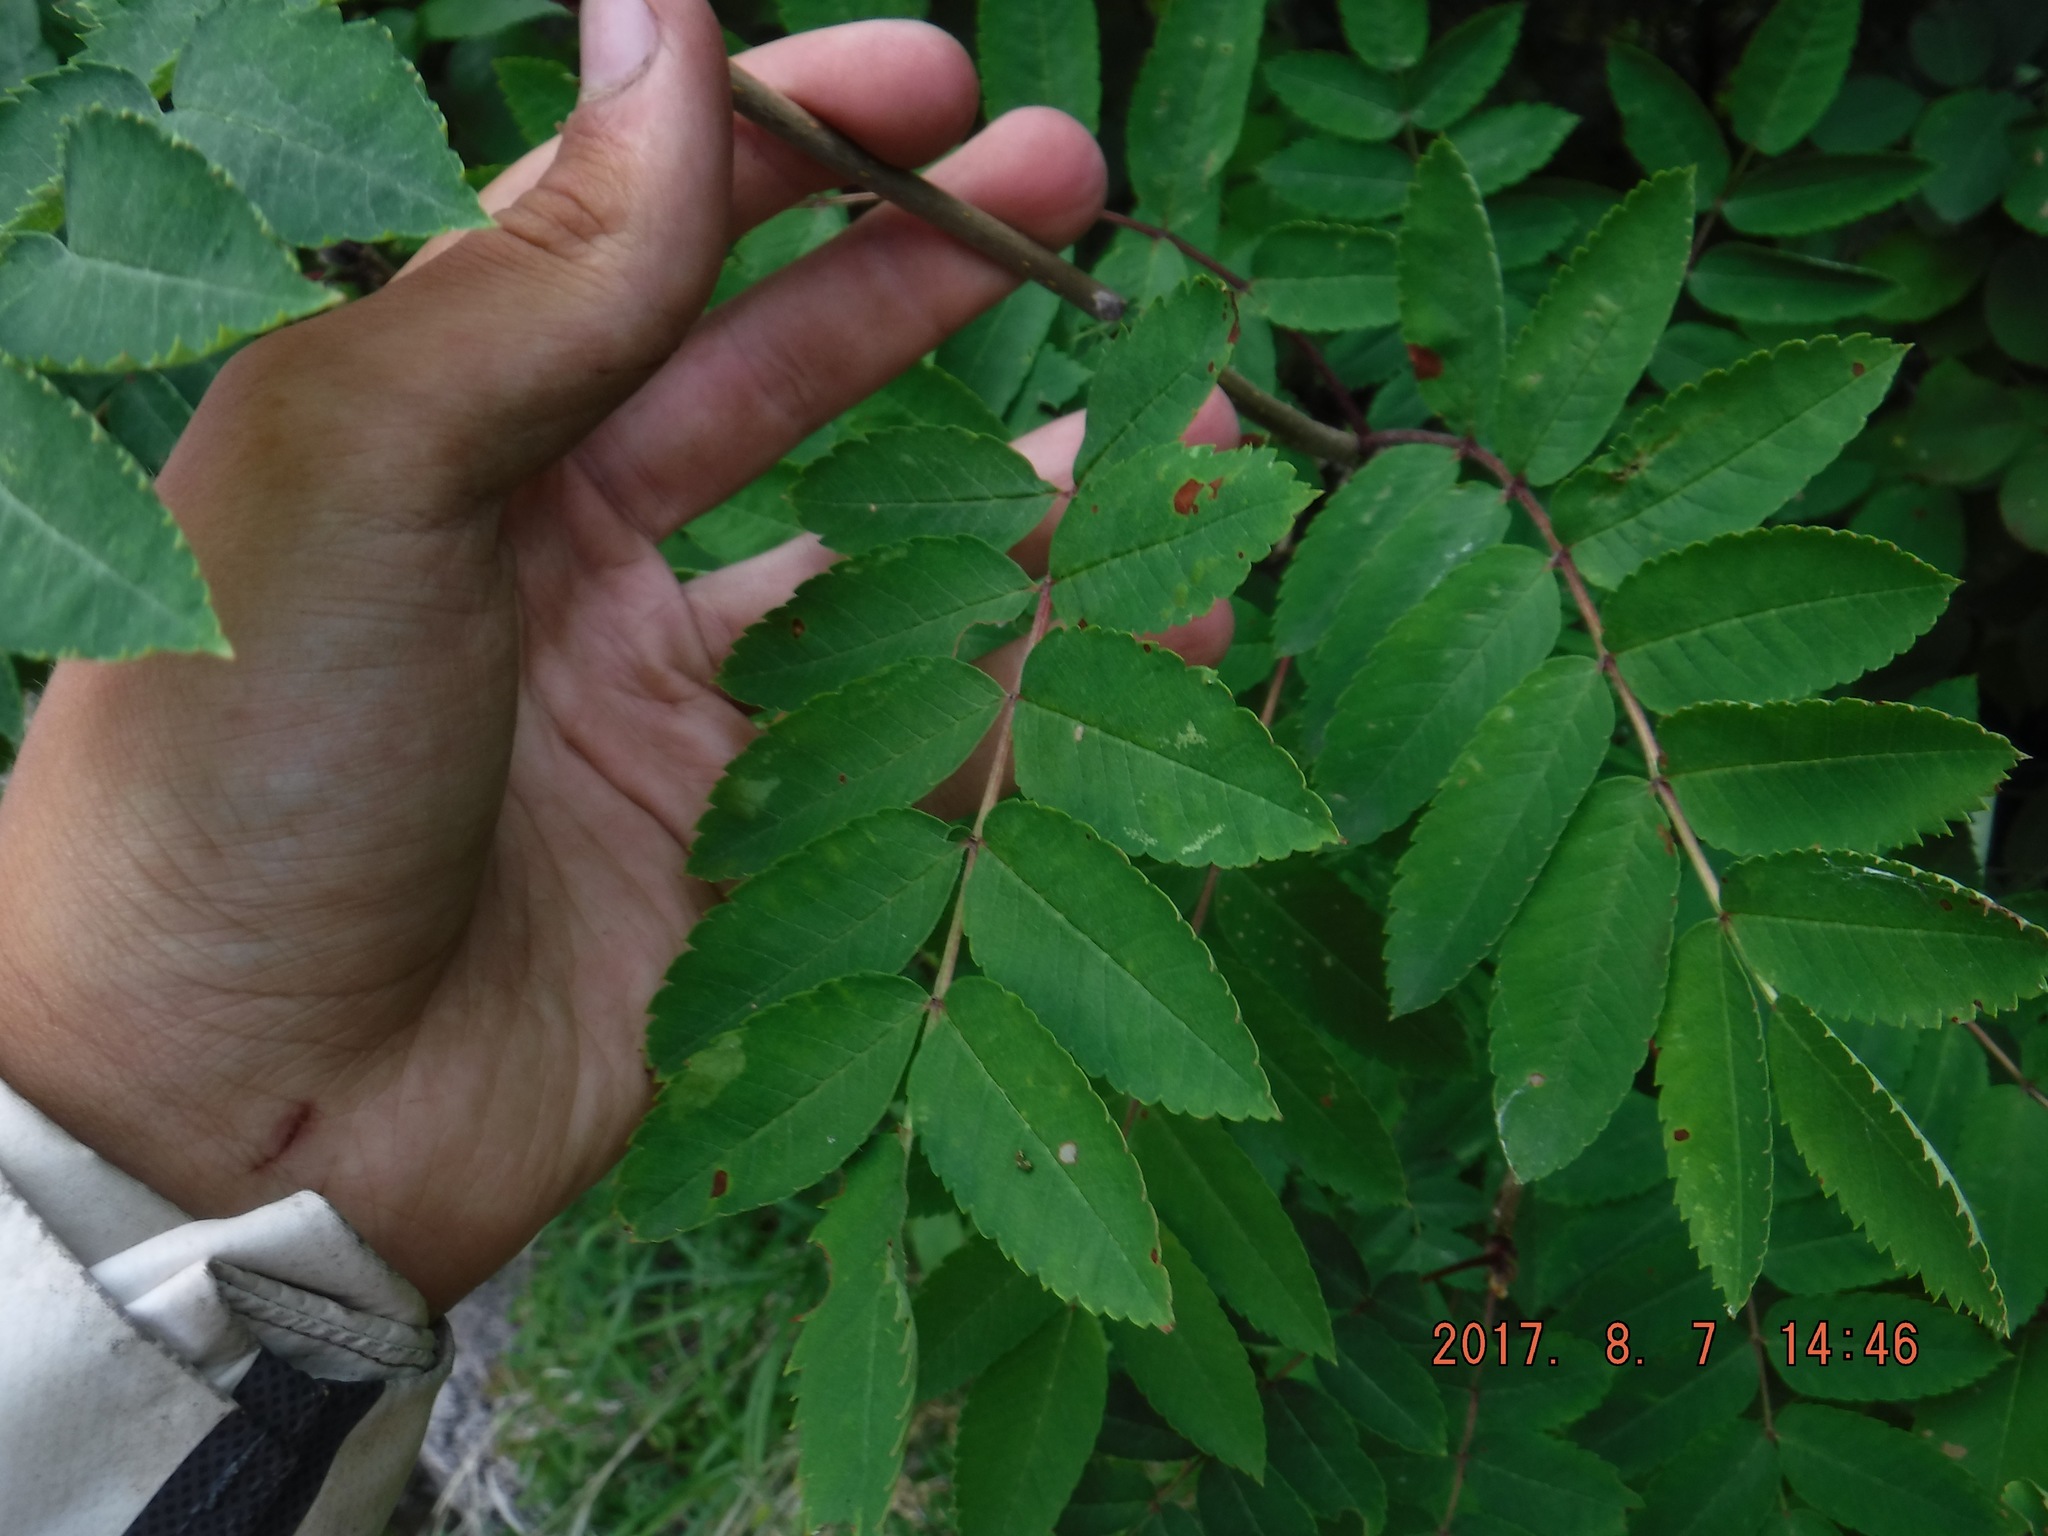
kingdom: Plantae
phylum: Tracheophyta
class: Magnoliopsida
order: Rosales
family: Rosaceae
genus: Sorbus
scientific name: Sorbus decora
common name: Northern mountain-ash
